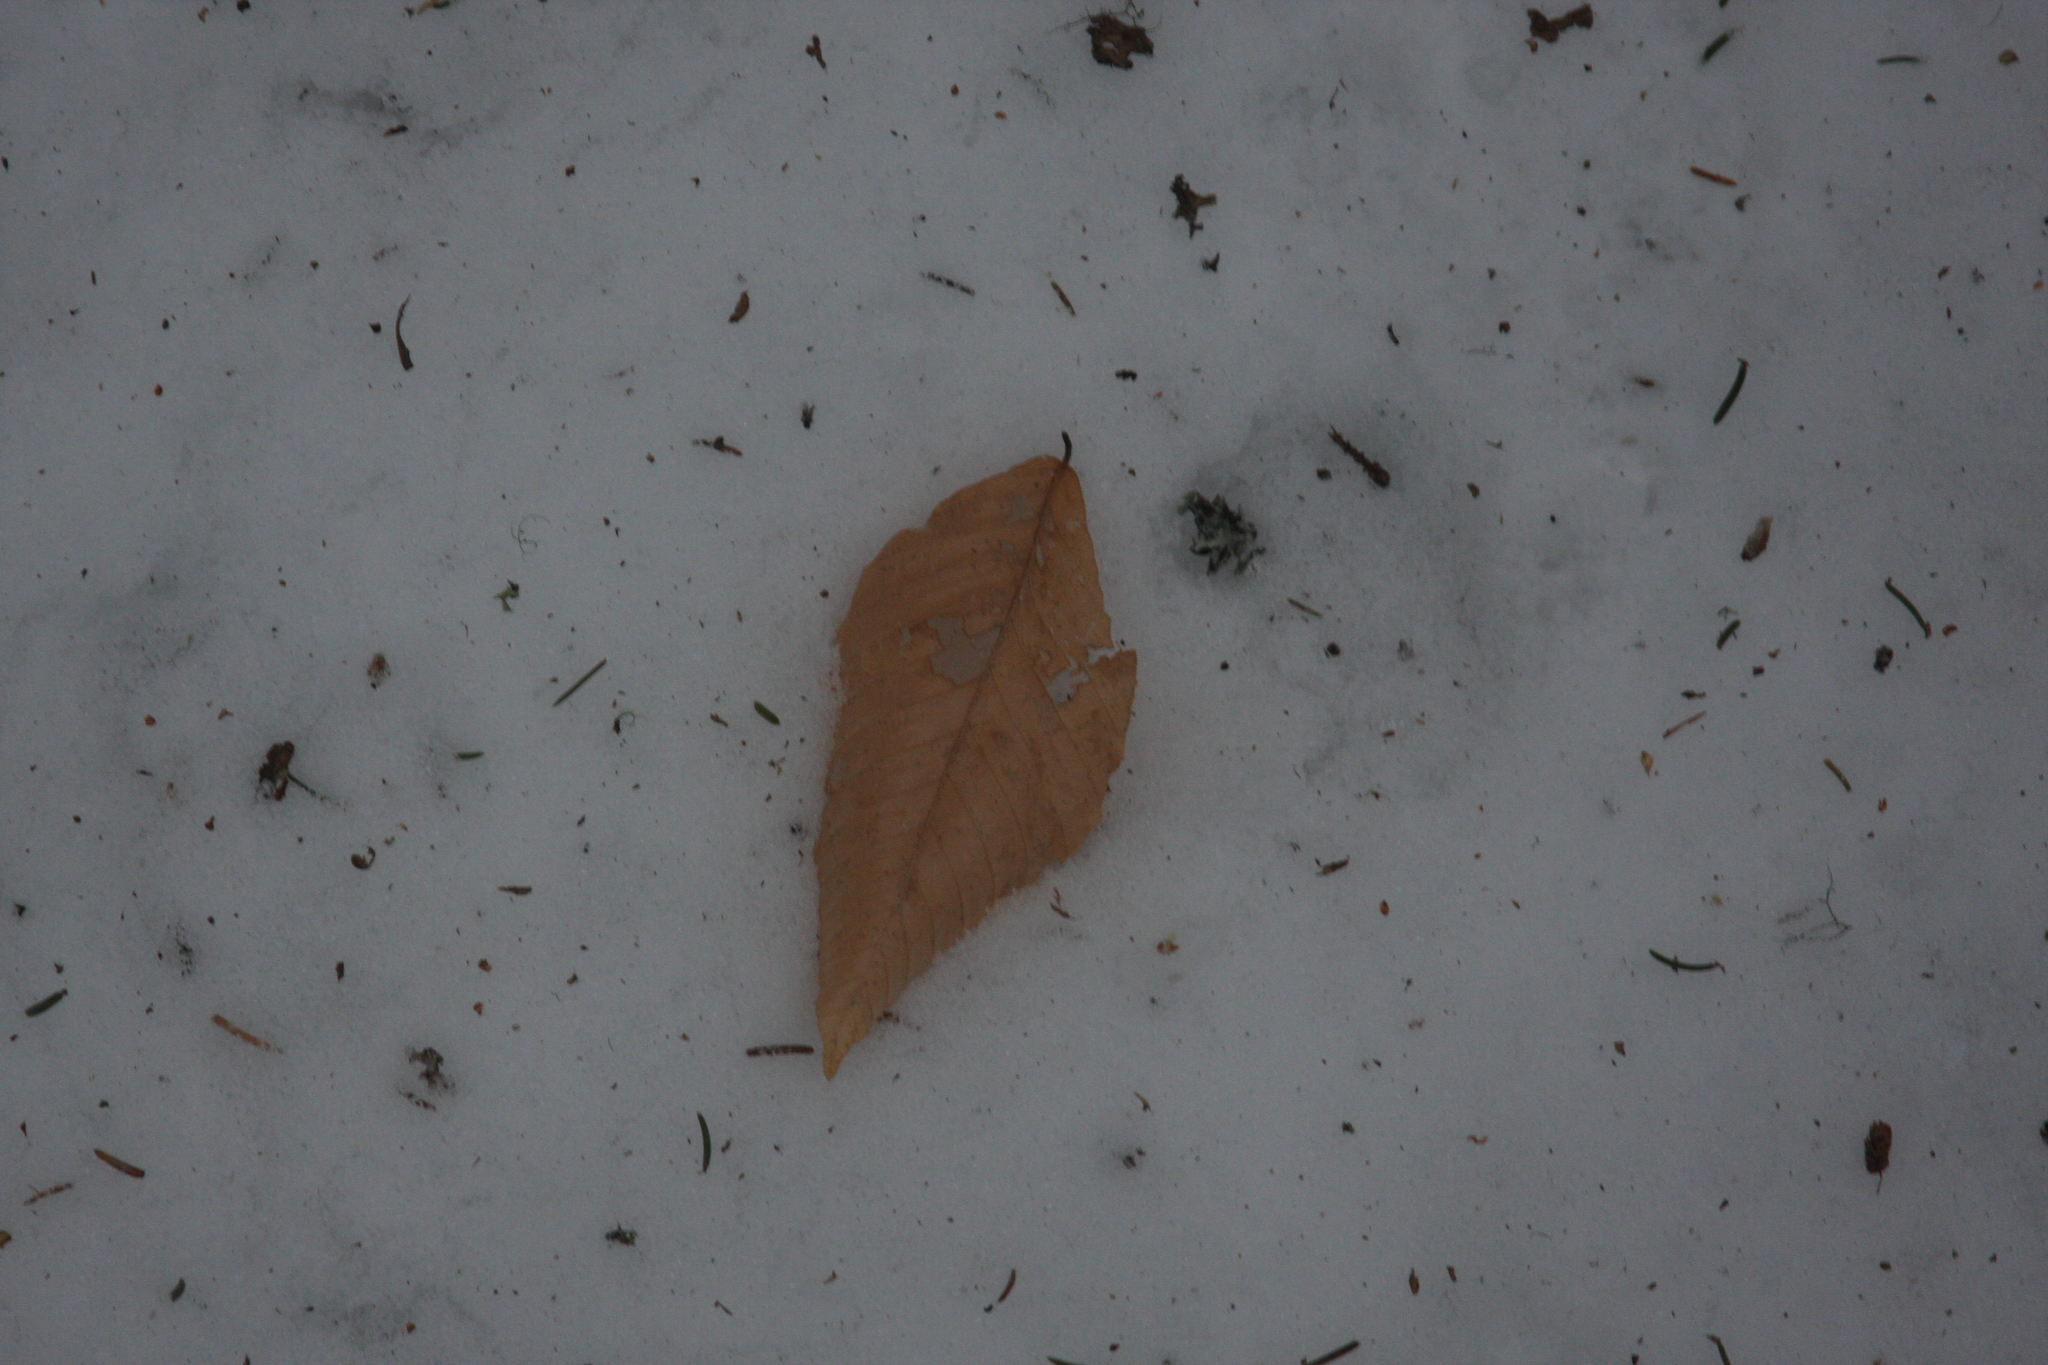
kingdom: Plantae
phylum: Tracheophyta
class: Magnoliopsida
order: Fagales
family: Fagaceae
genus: Fagus
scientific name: Fagus grandifolia
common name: American beech
